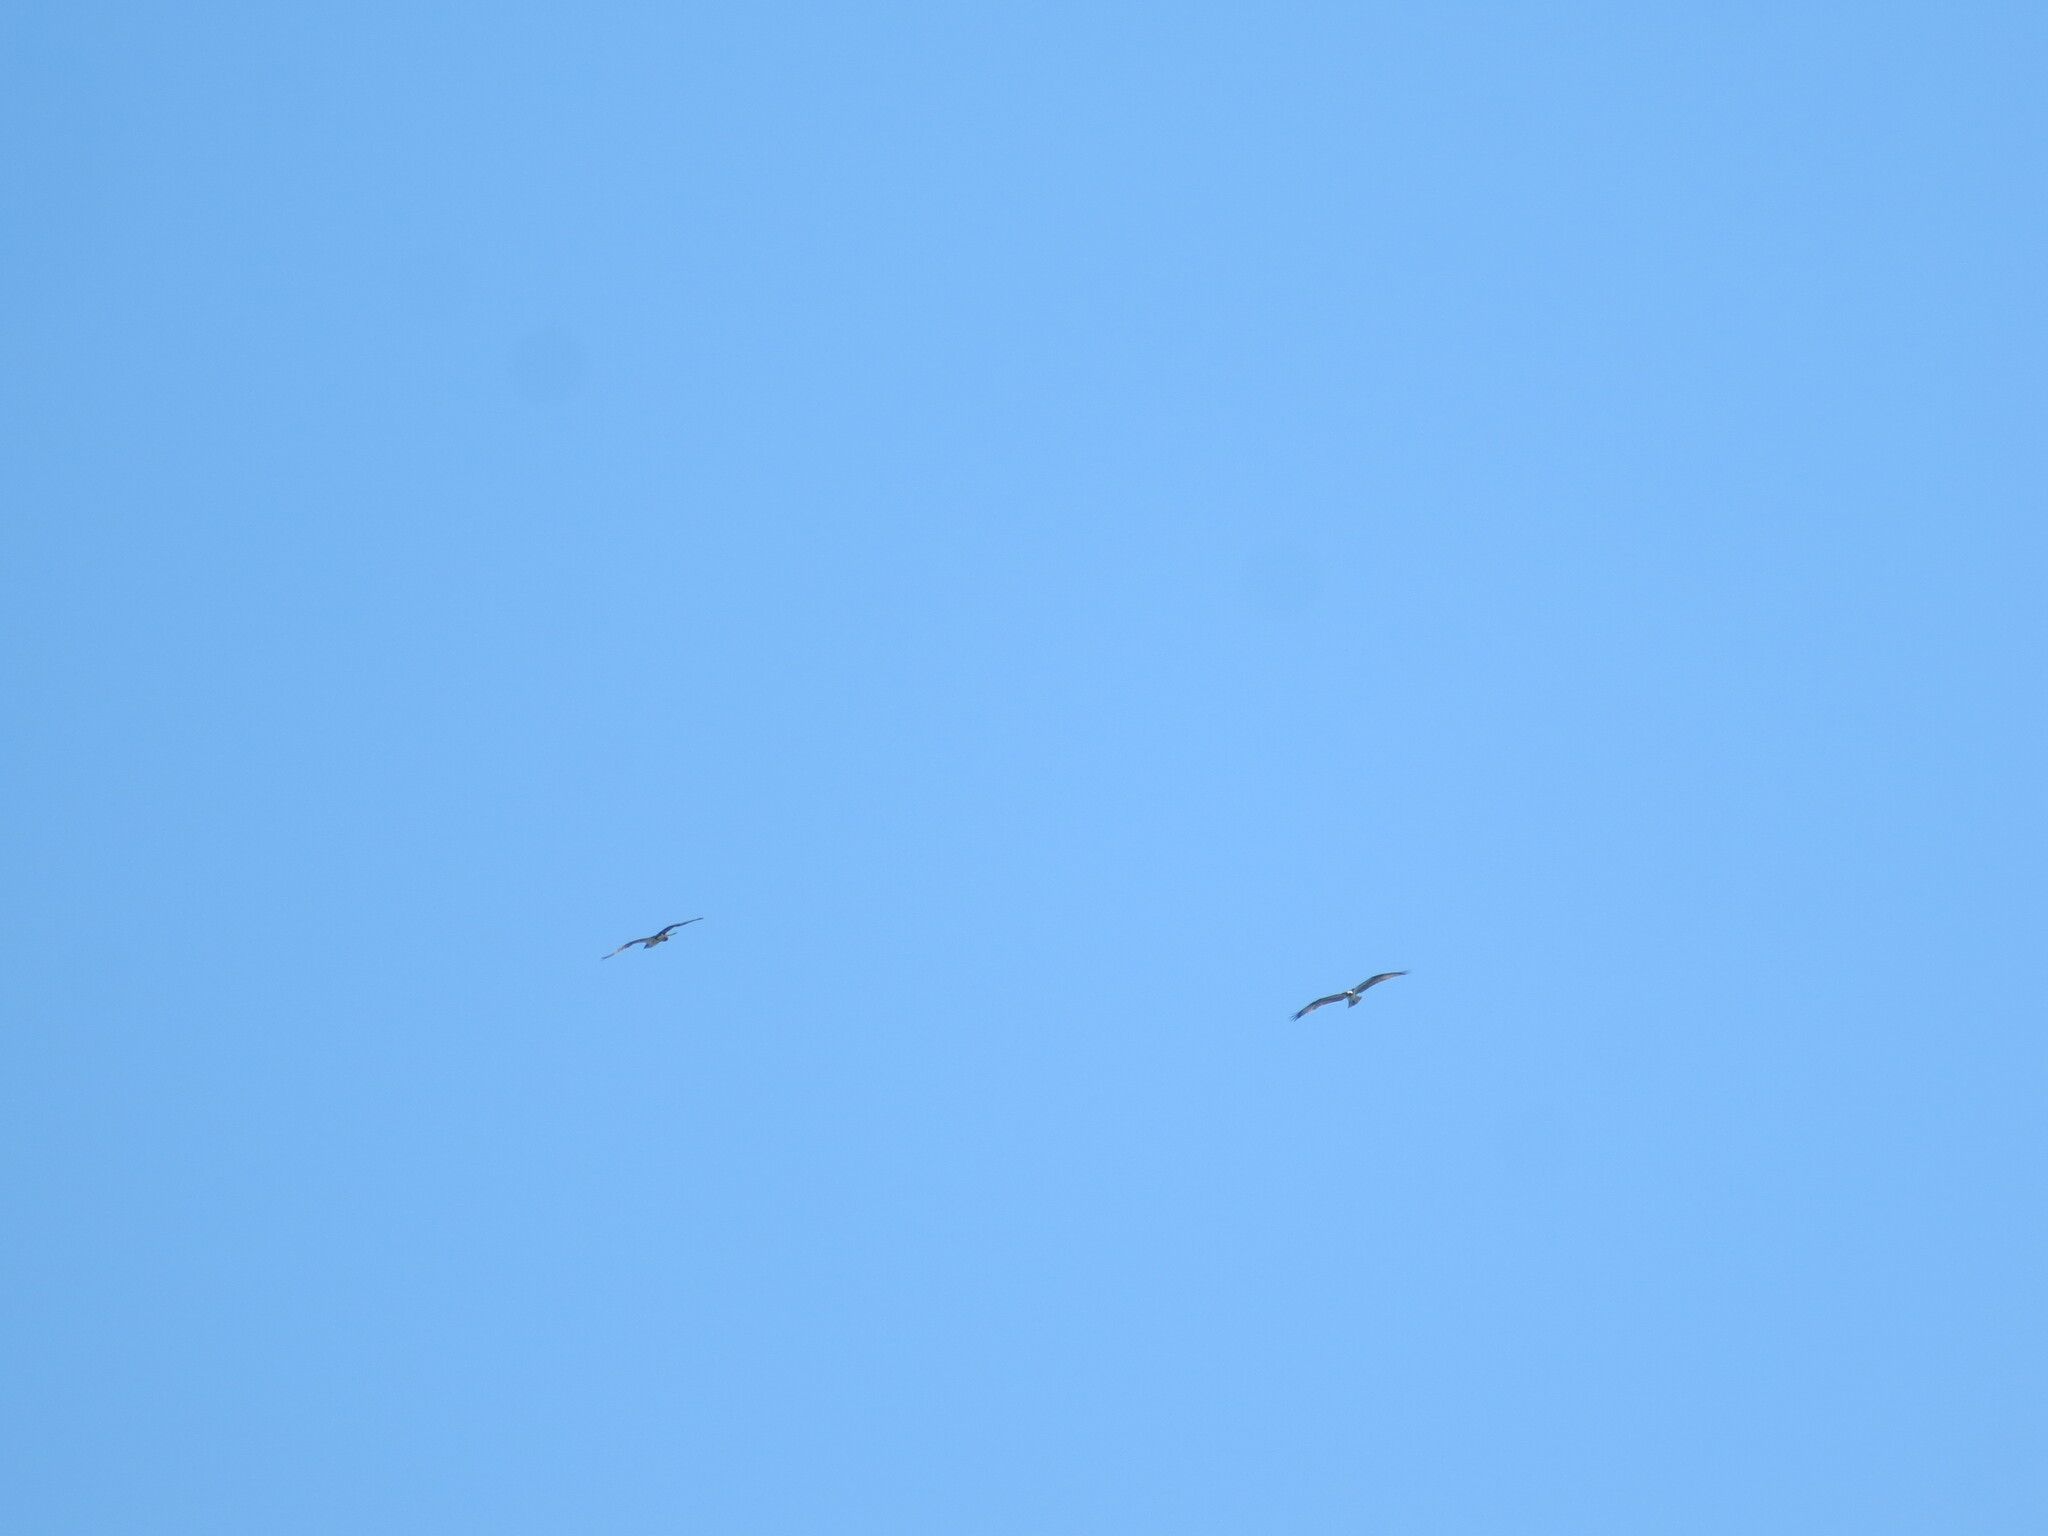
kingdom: Animalia
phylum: Chordata
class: Aves
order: Accipitriformes
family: Pandionidae
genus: Pandion
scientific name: Pandion haliaetus
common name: Osprey
